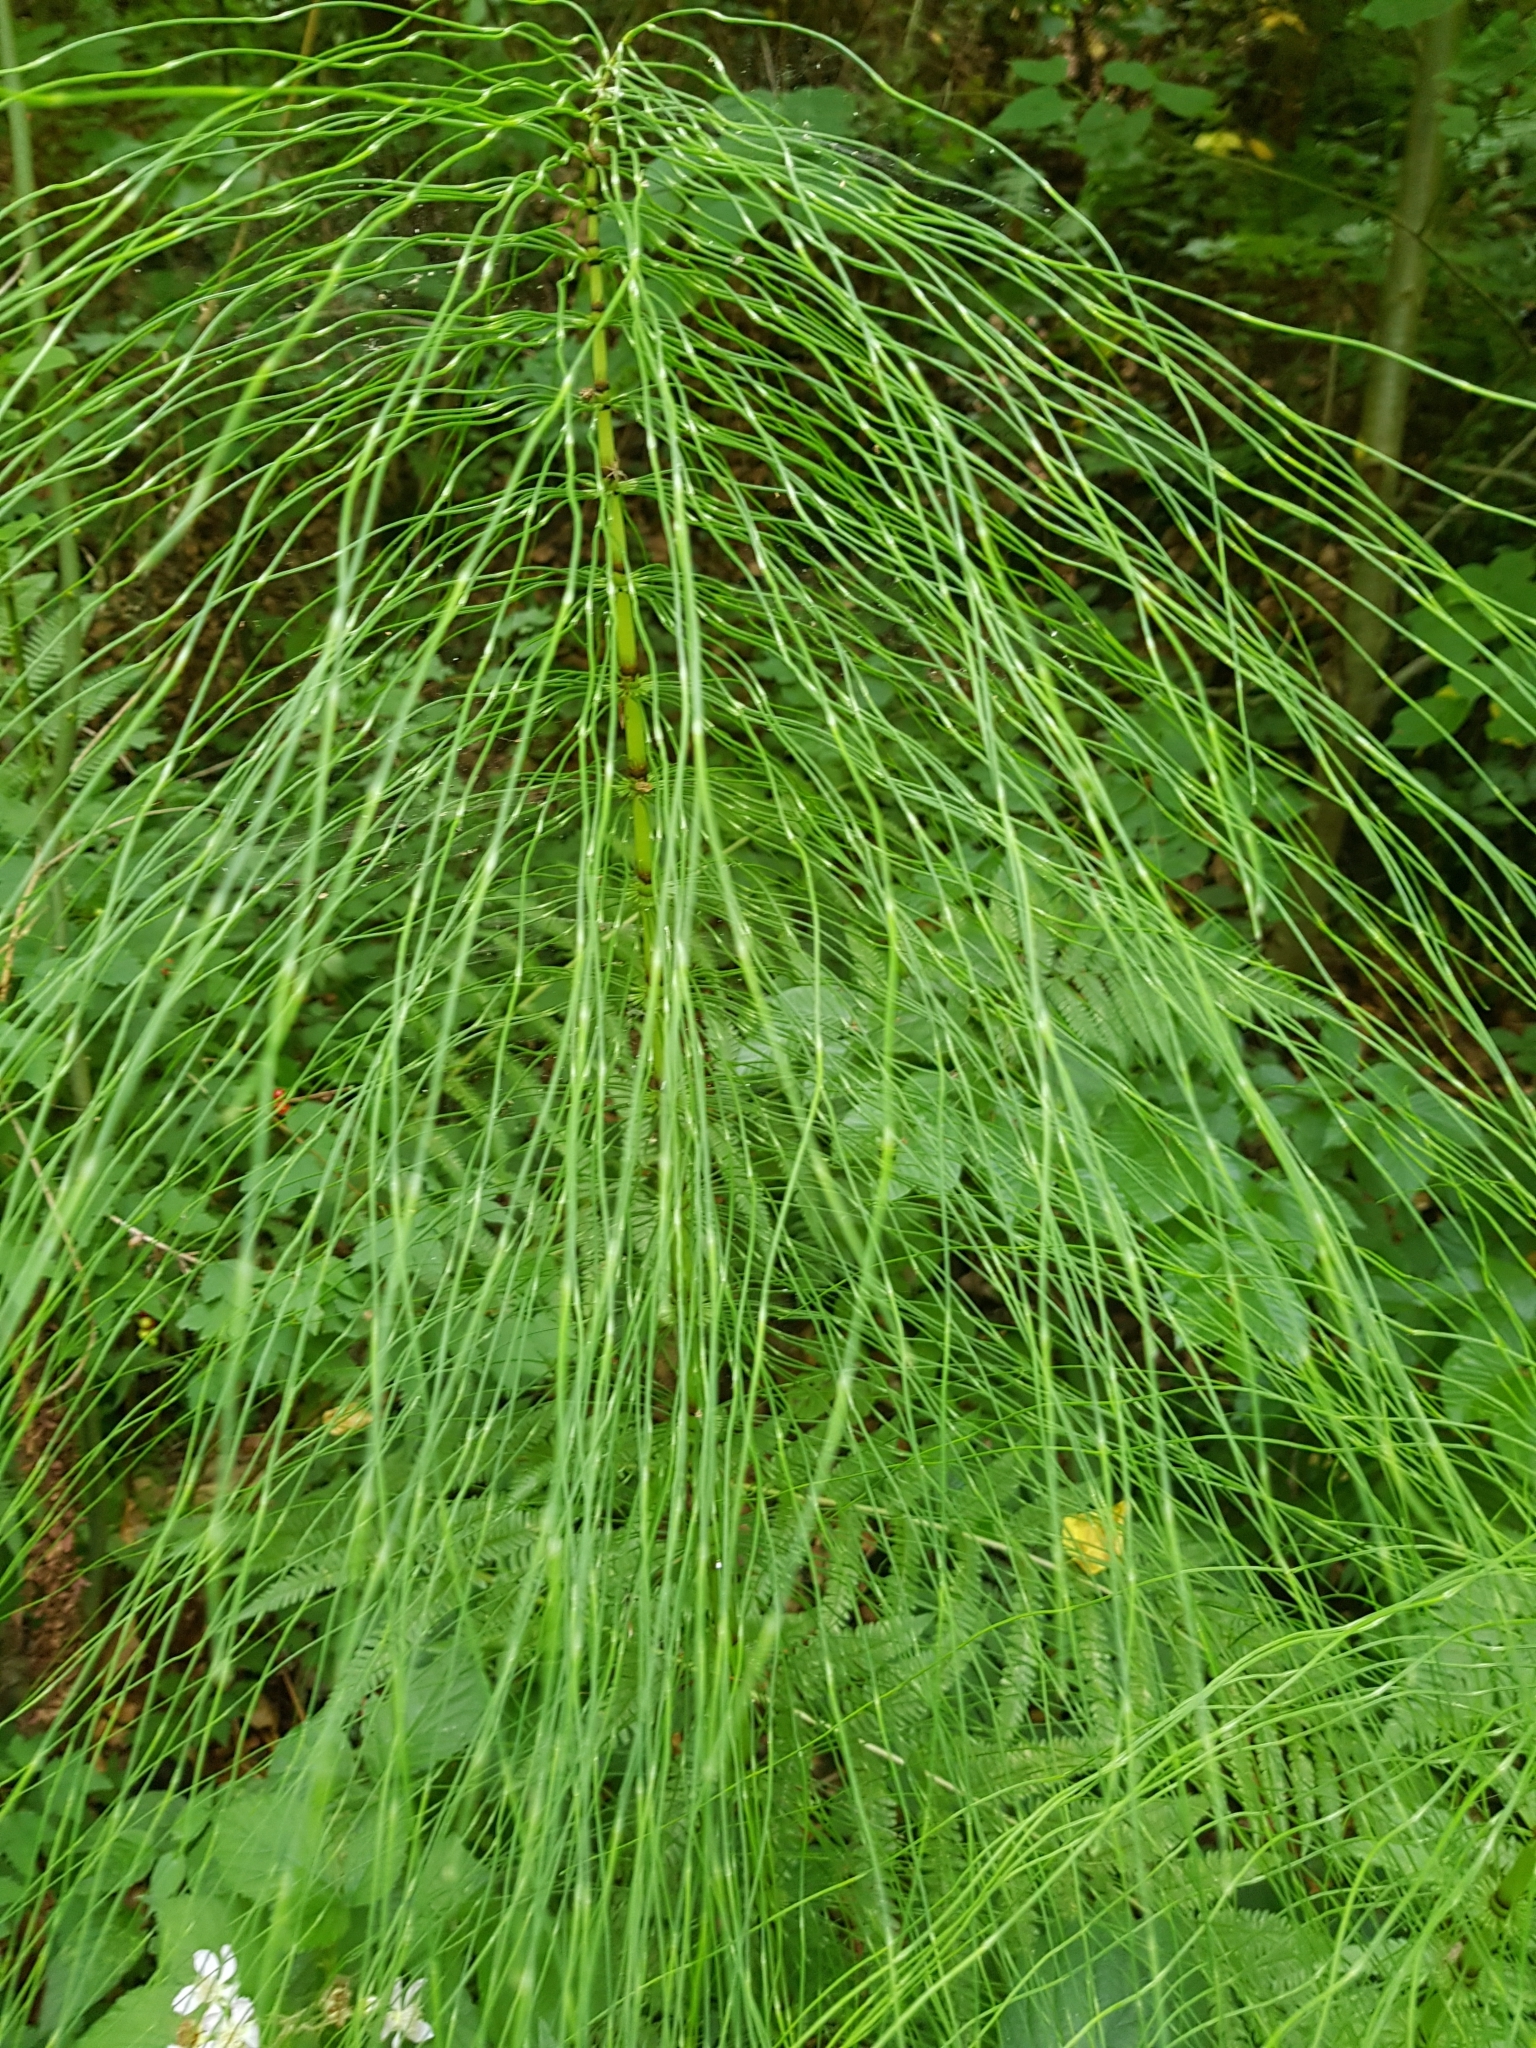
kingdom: Plantae
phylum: Tracheophyta
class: Polypodiopsida
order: Equisetales
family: Equisetaceae
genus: Equisetum
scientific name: Equisetum telmateia
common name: Great horsetail
